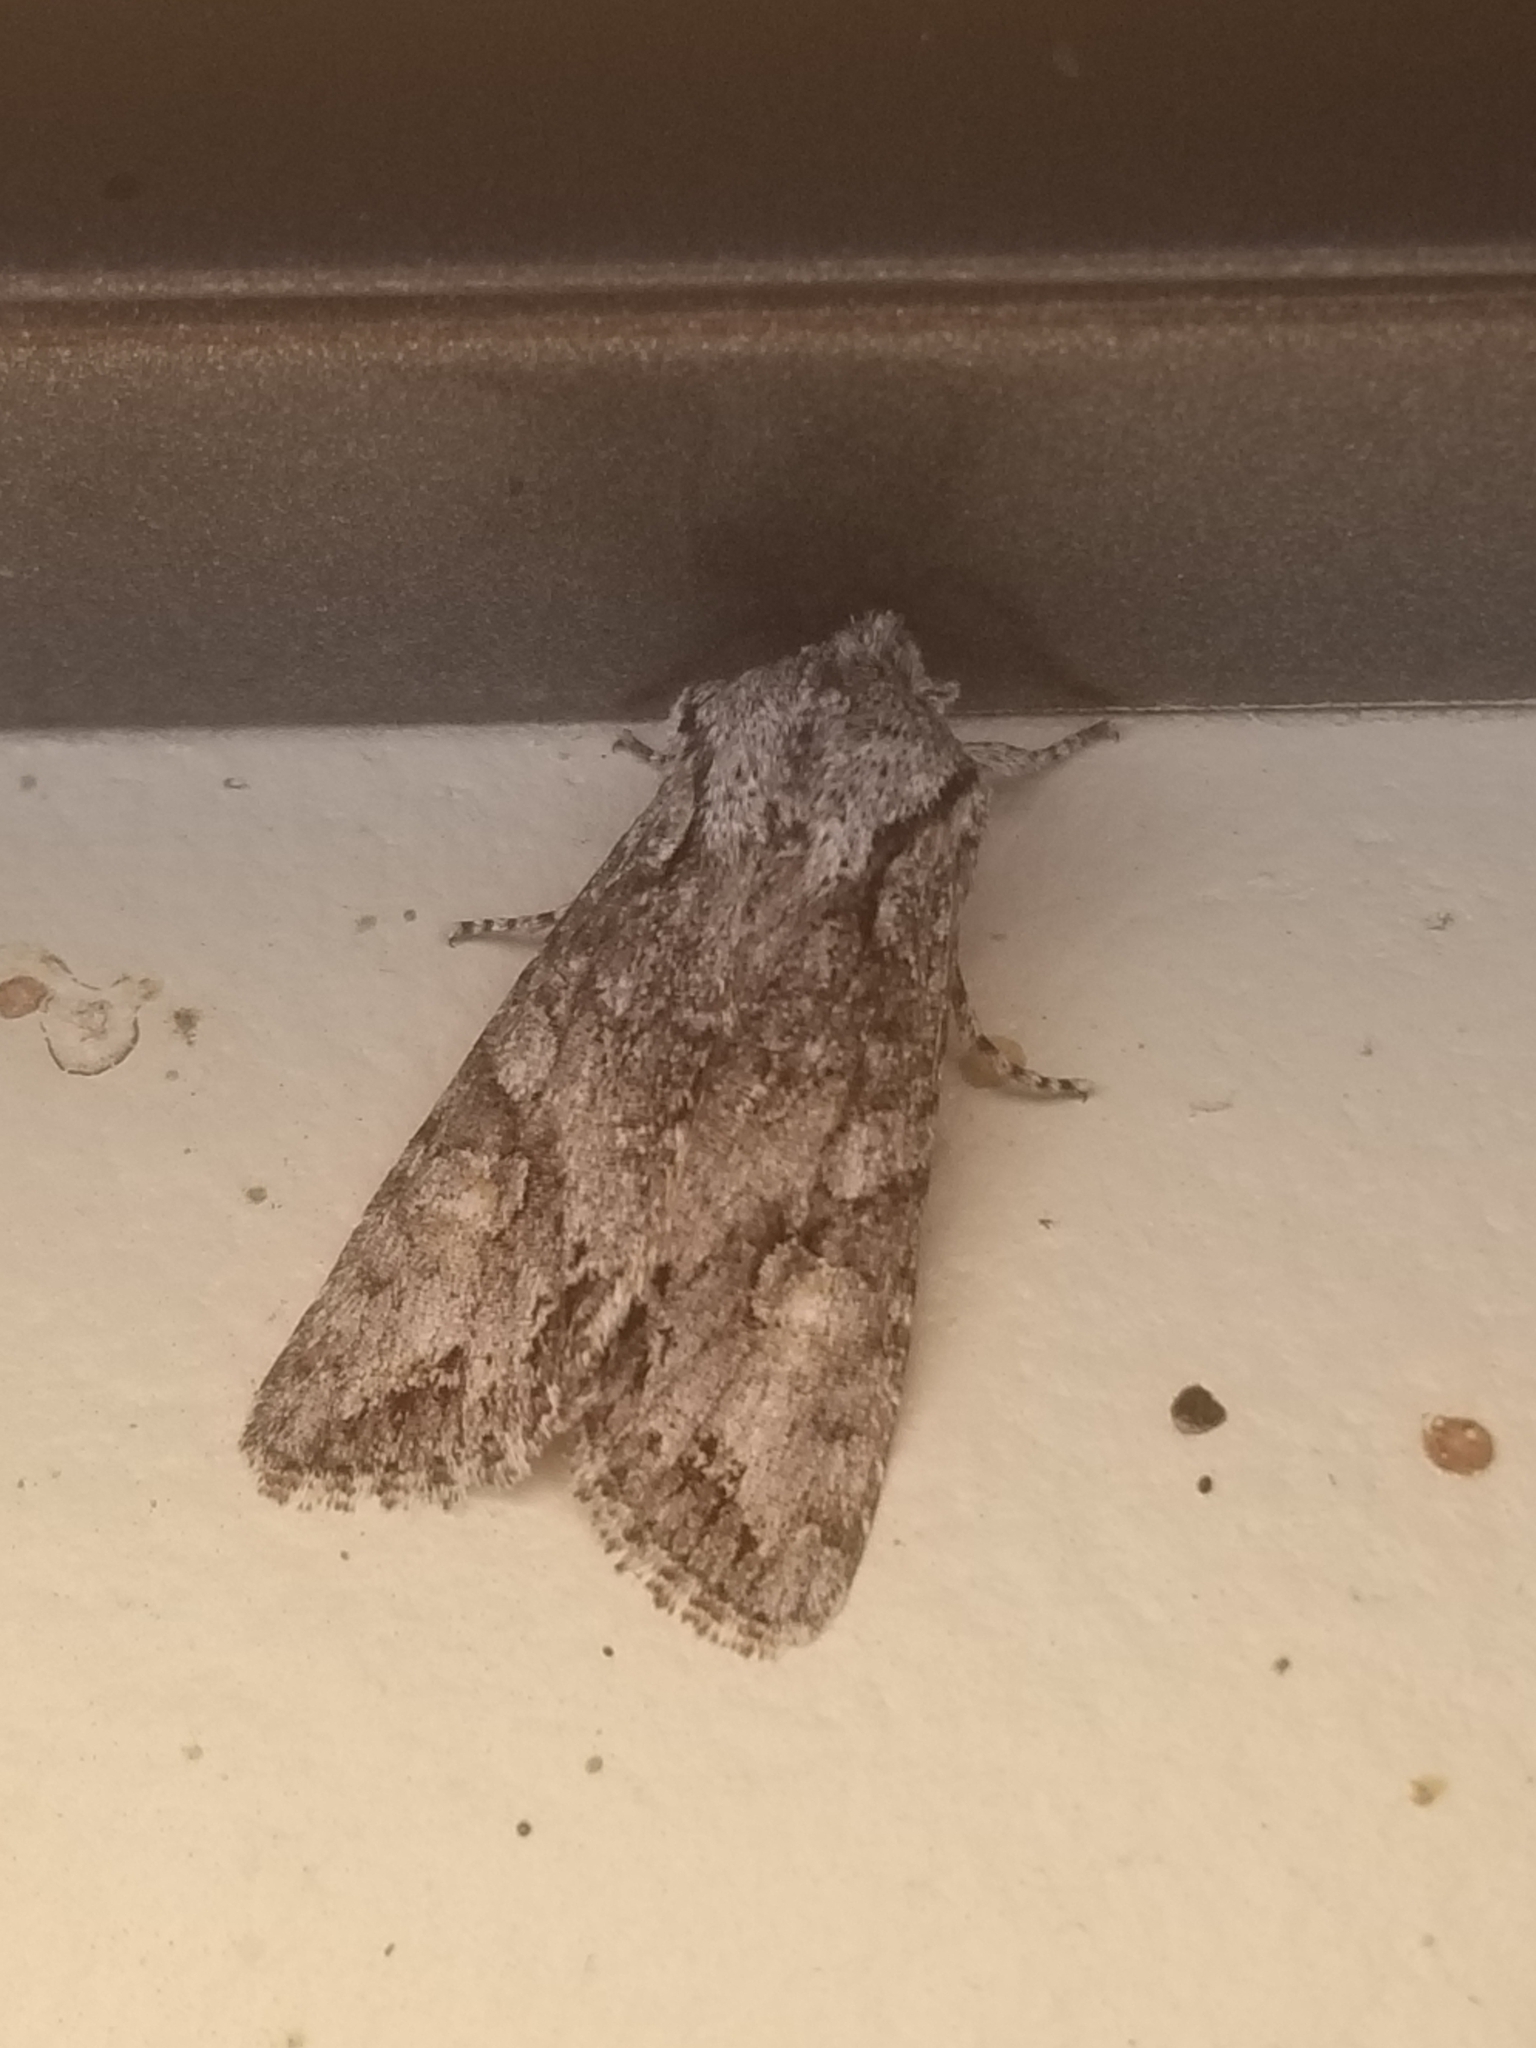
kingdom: Animalia
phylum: Arthropoda
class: Insecta
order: Lepidoptera
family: Noctuidae
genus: Egira
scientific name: Egira hiemalis
